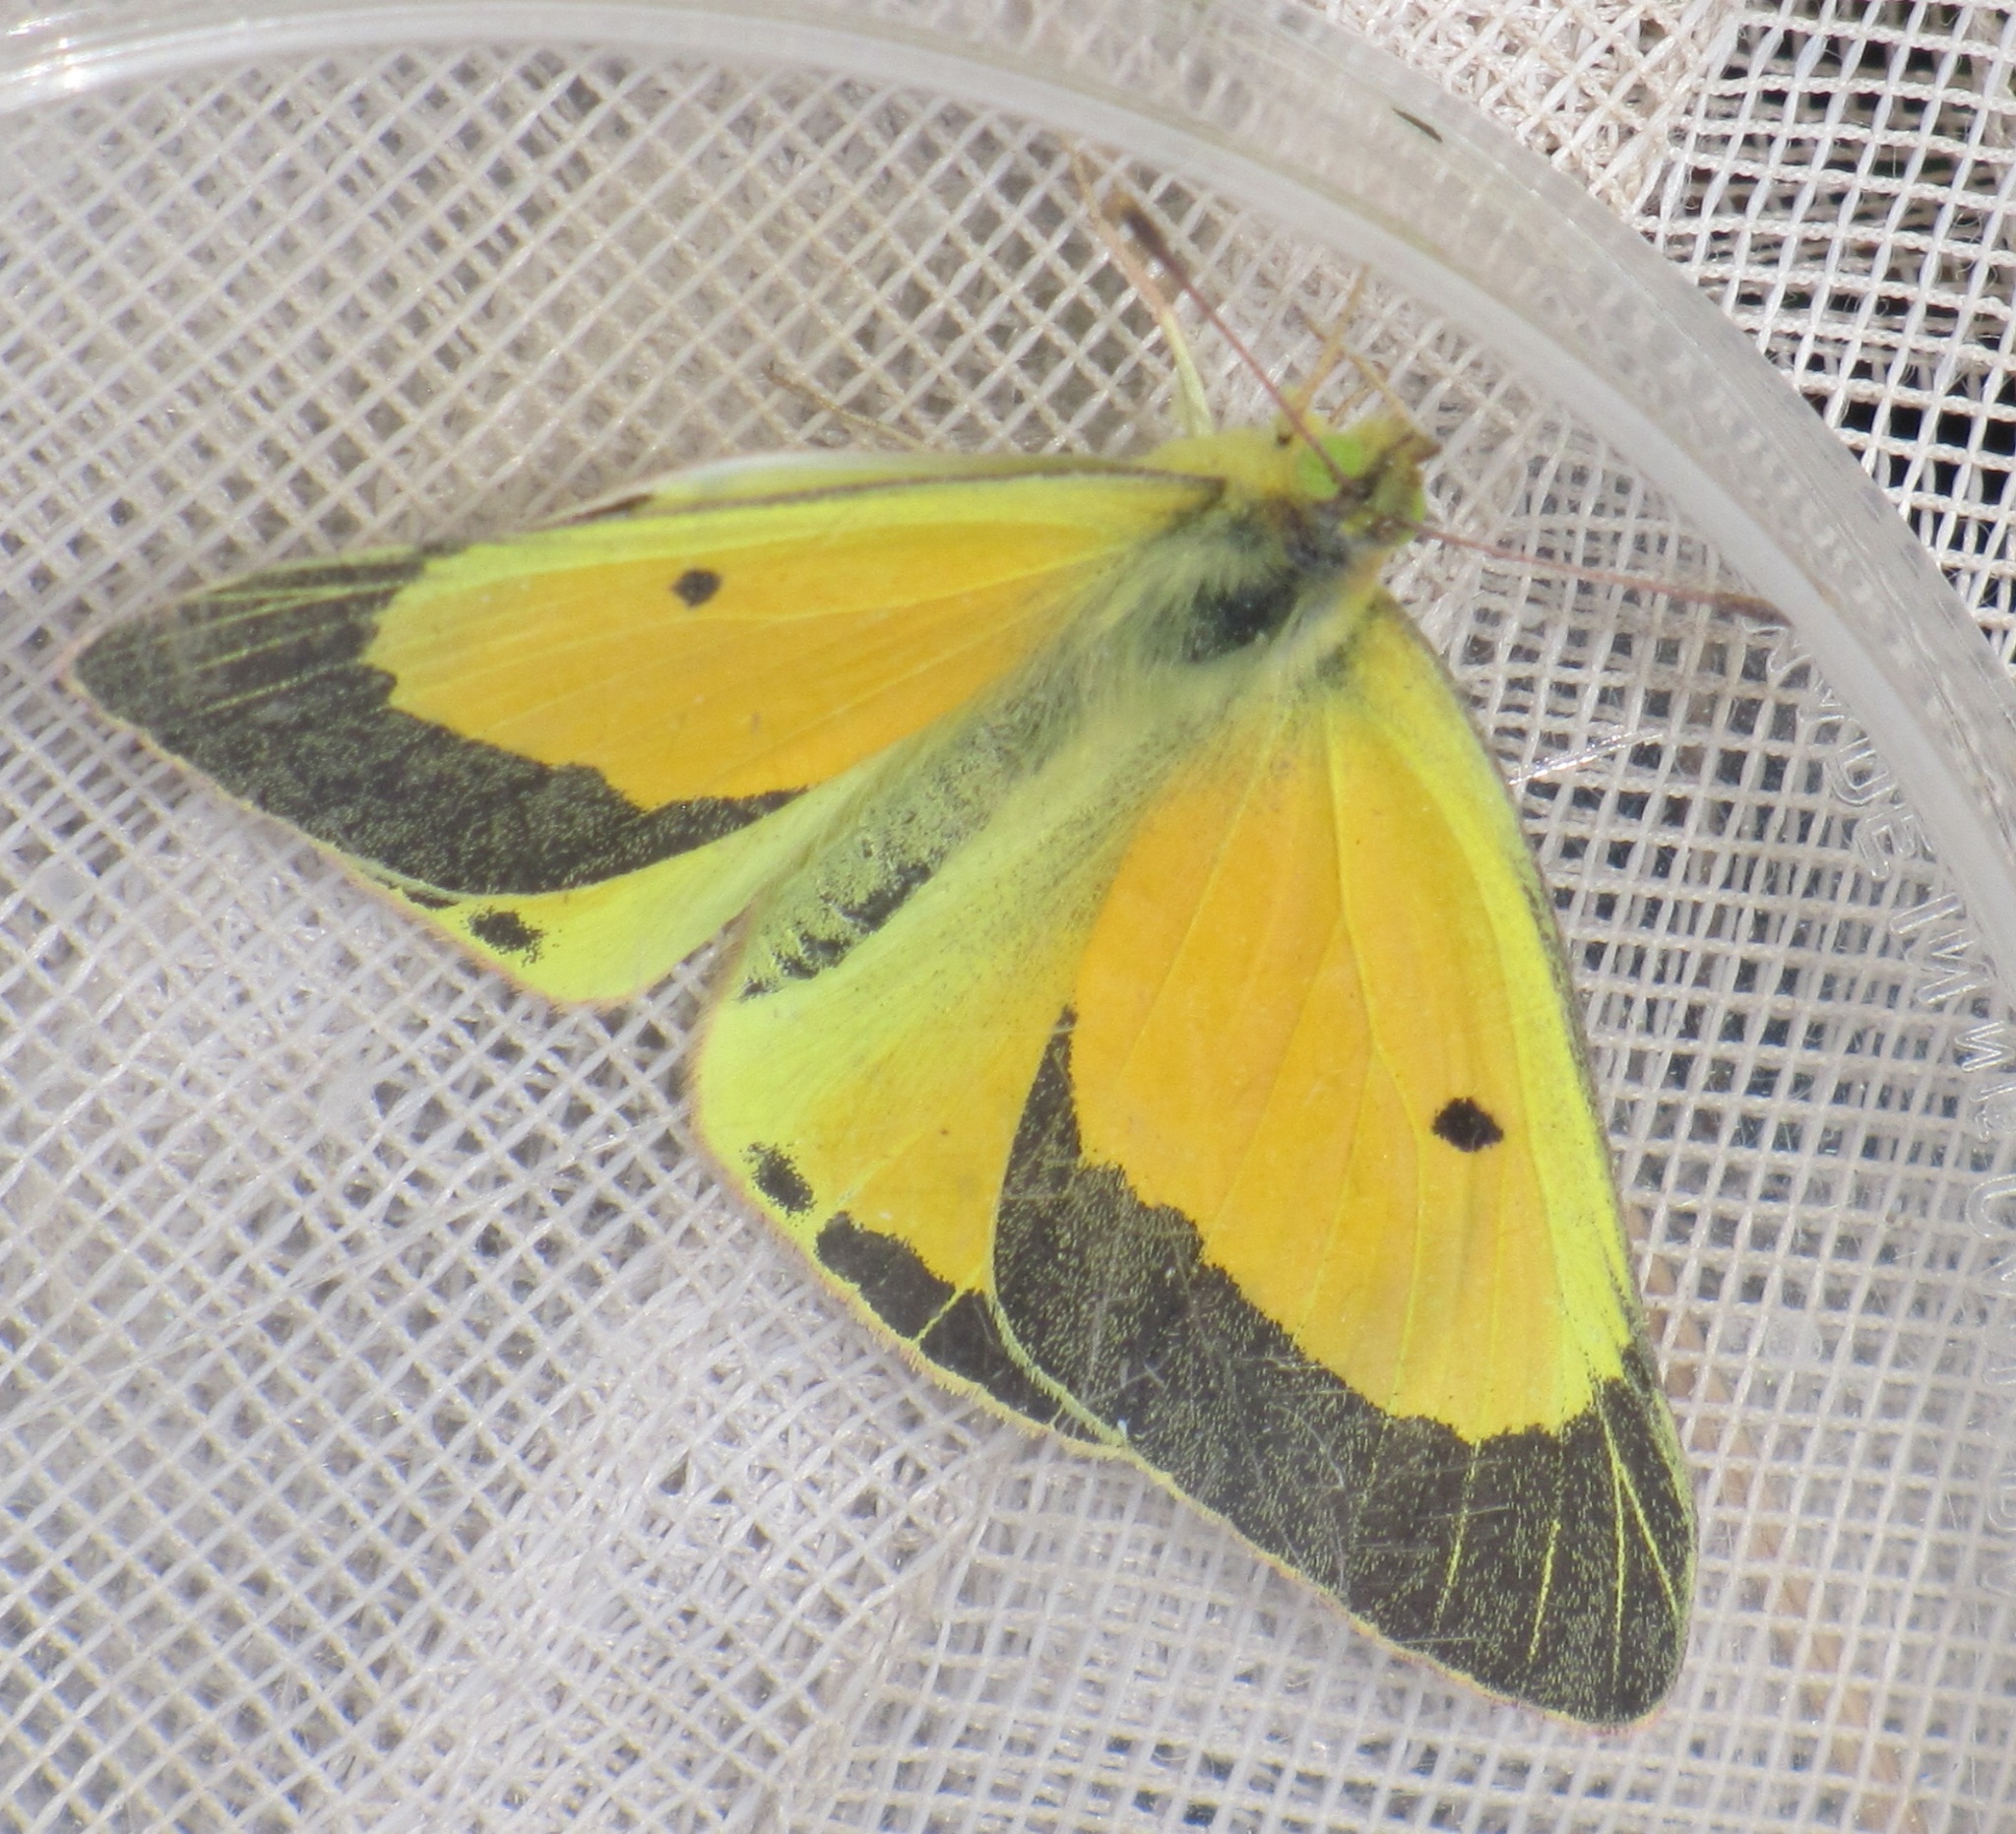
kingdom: Animalia
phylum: Arthropoda
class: Insecta
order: Lepidoptera
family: Pieridae
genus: Colias
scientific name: Colias eurytheme
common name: Alfalfa butterfly
